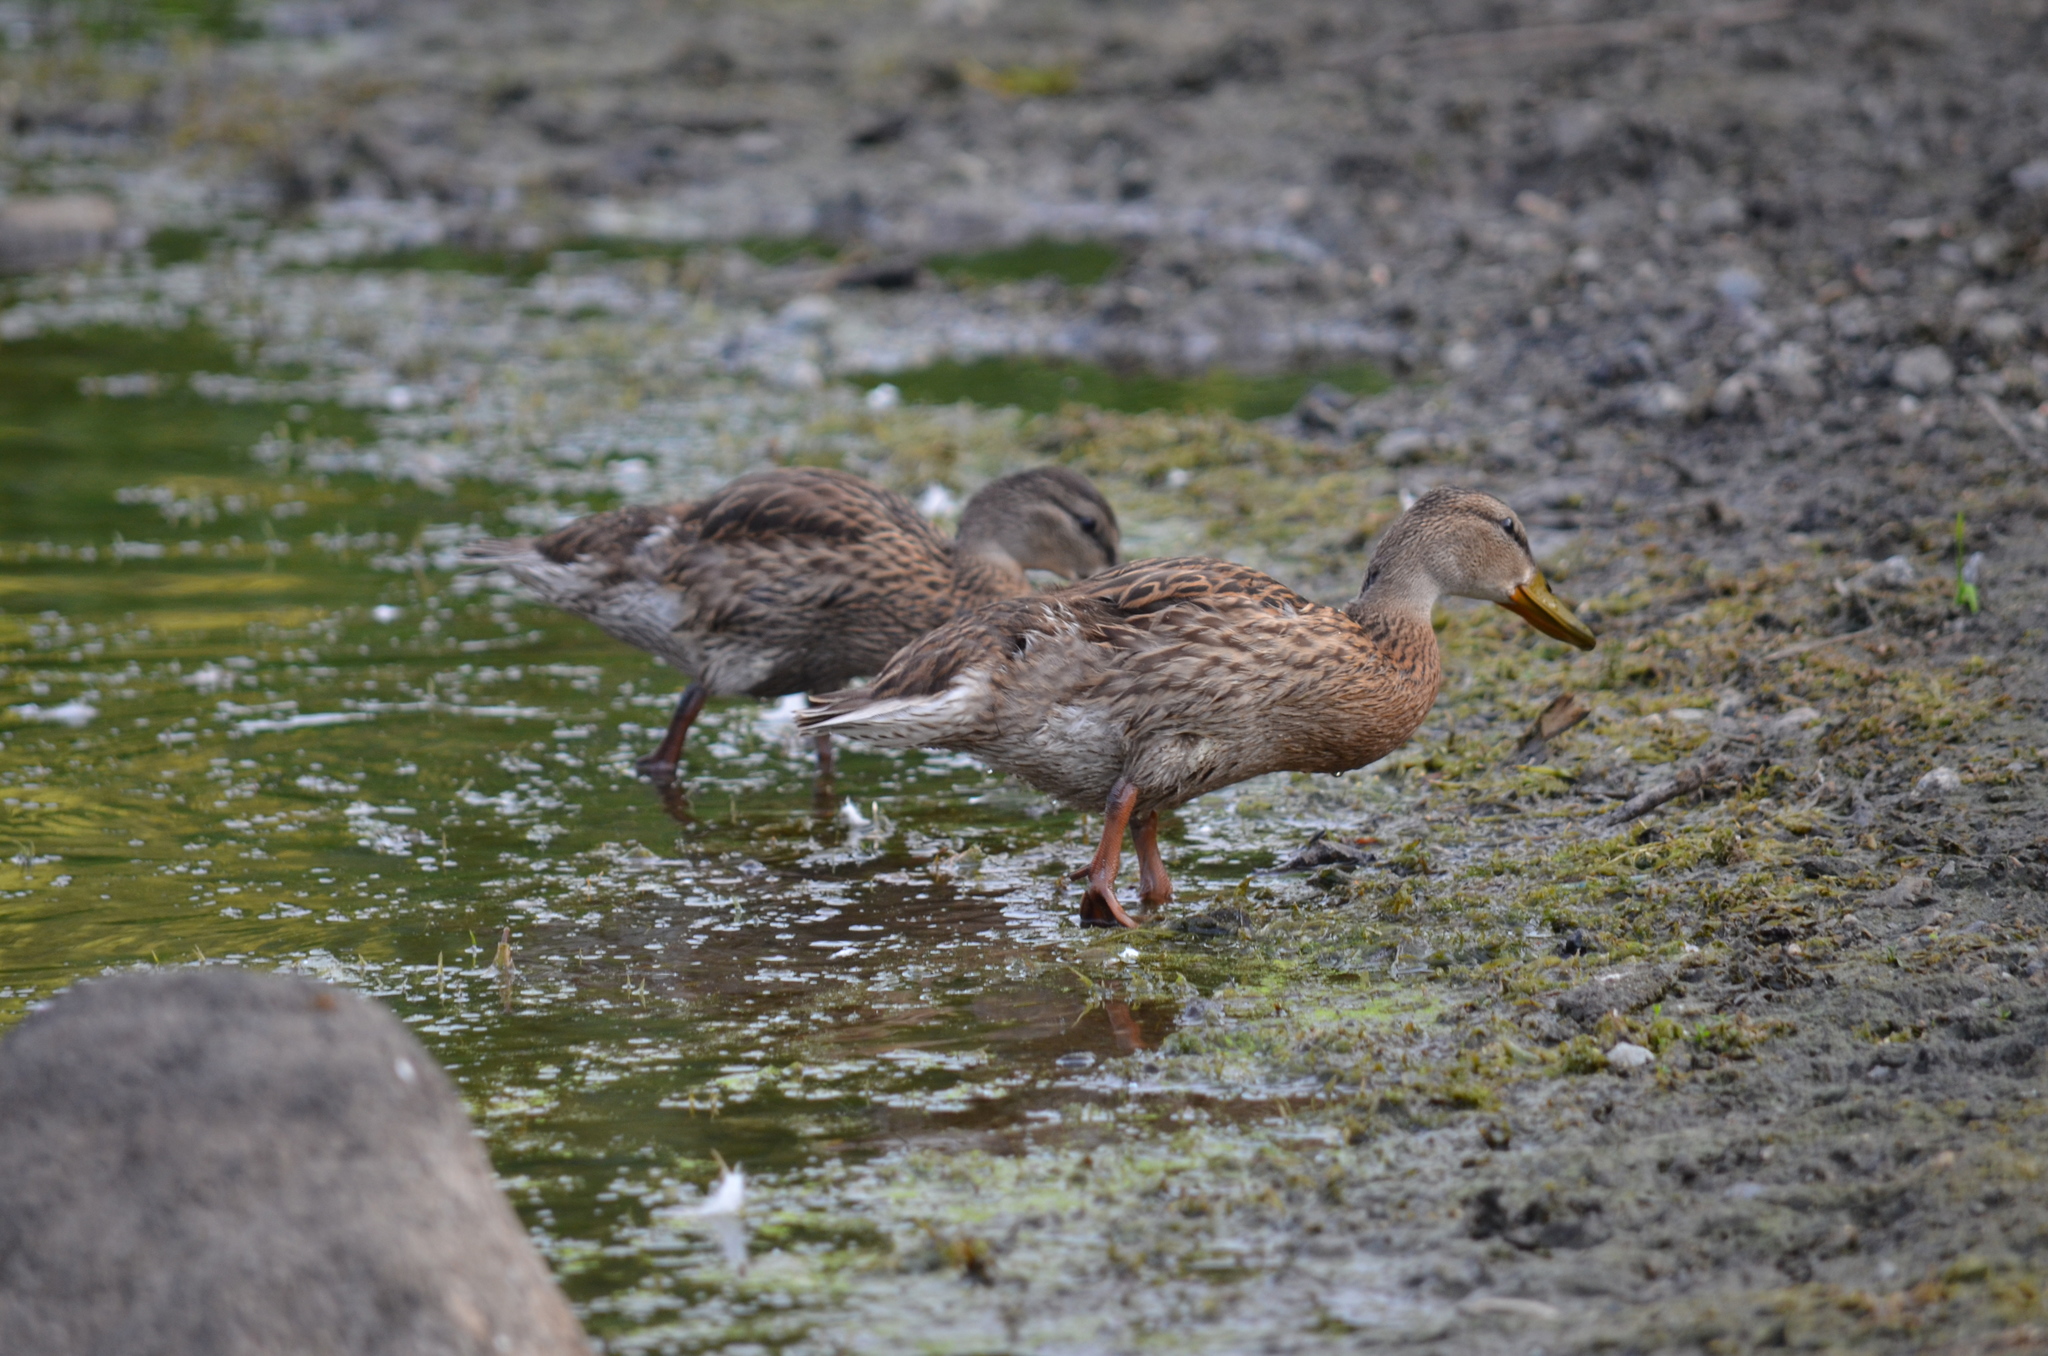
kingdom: Animalia
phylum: Chordata
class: Aves
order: Anseriformes
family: Anatidae
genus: Anas
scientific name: Anas platyrhynchos
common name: Mallard
